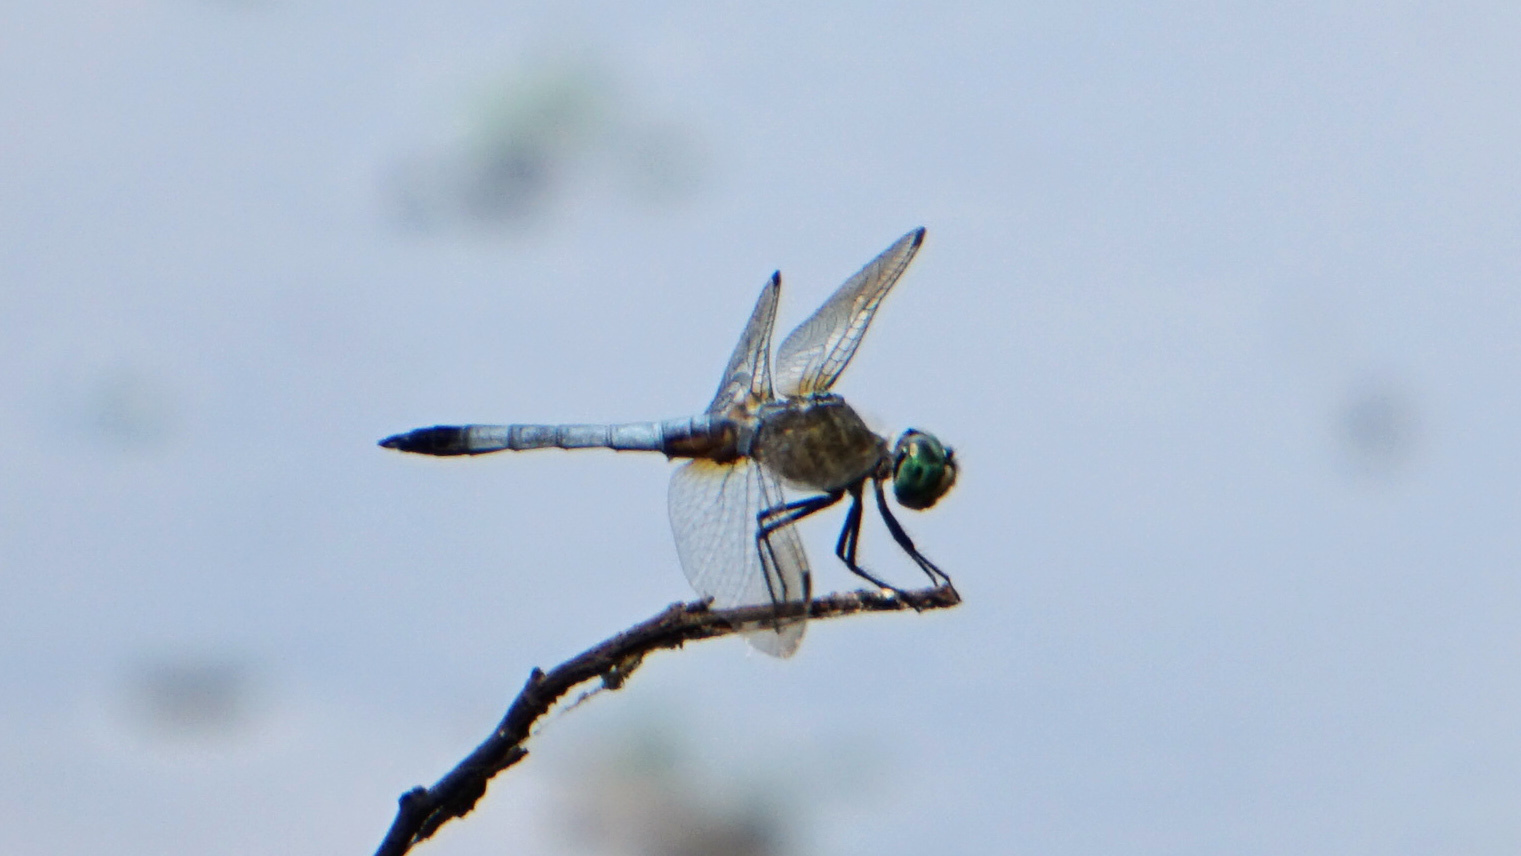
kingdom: Animalia
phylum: Arthropoda
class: Insecta
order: Odonata
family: Libellulidae
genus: Pachydiplax
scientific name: Pachydiplax longipennis
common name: Blue dasher
